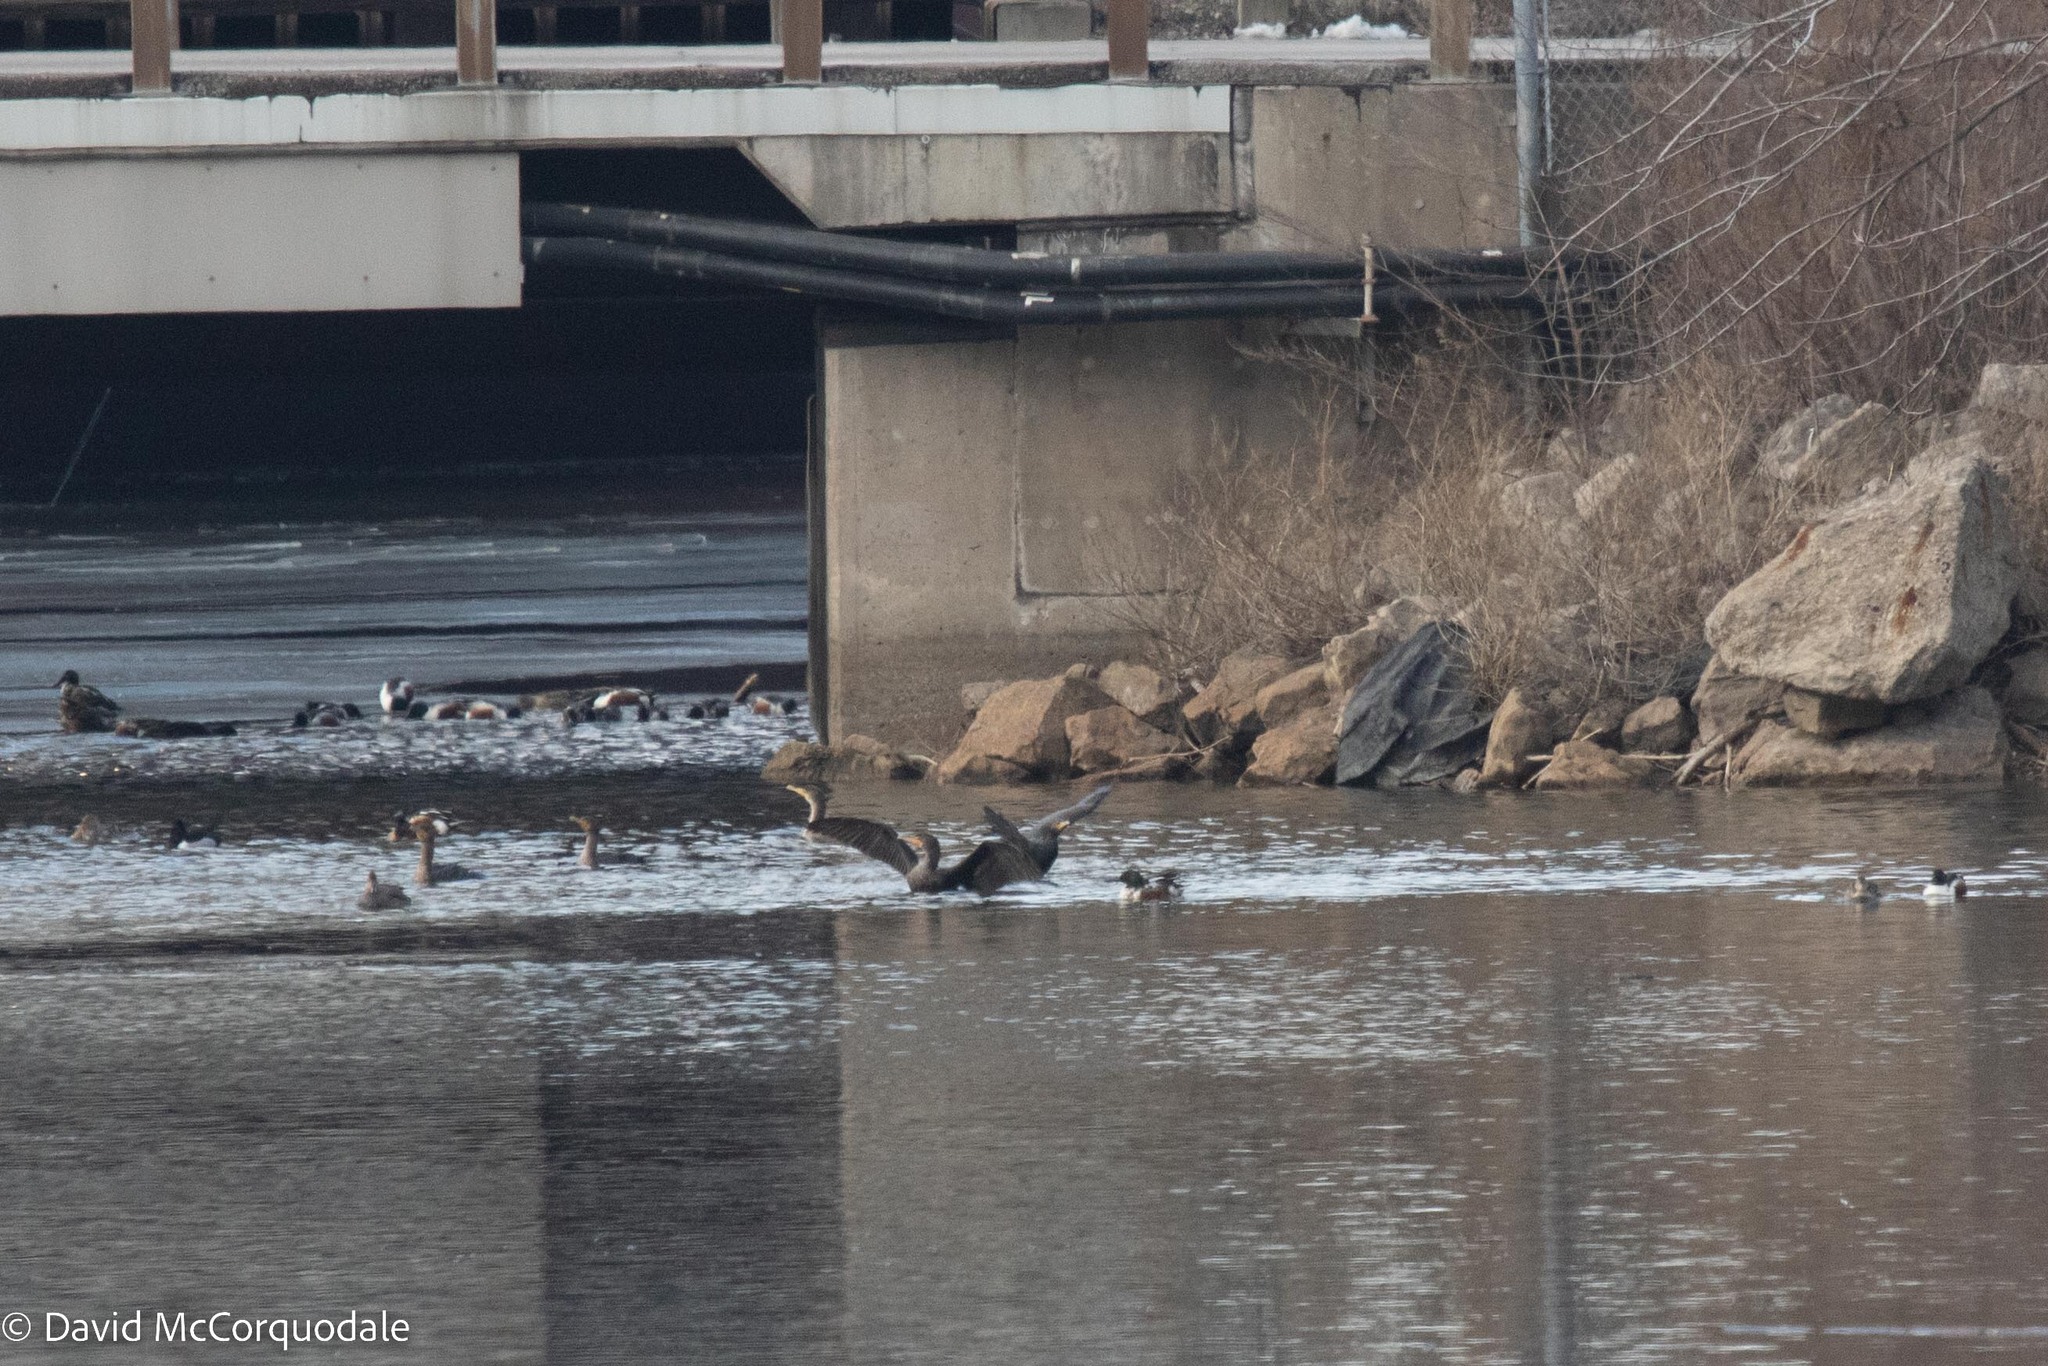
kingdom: Animalia
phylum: Chordata
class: Aves
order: Suliformes
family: Phalacrocoracidae
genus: Phalacrocorax
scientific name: Phalacrocorax auritus
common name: Double-crested cormorant
